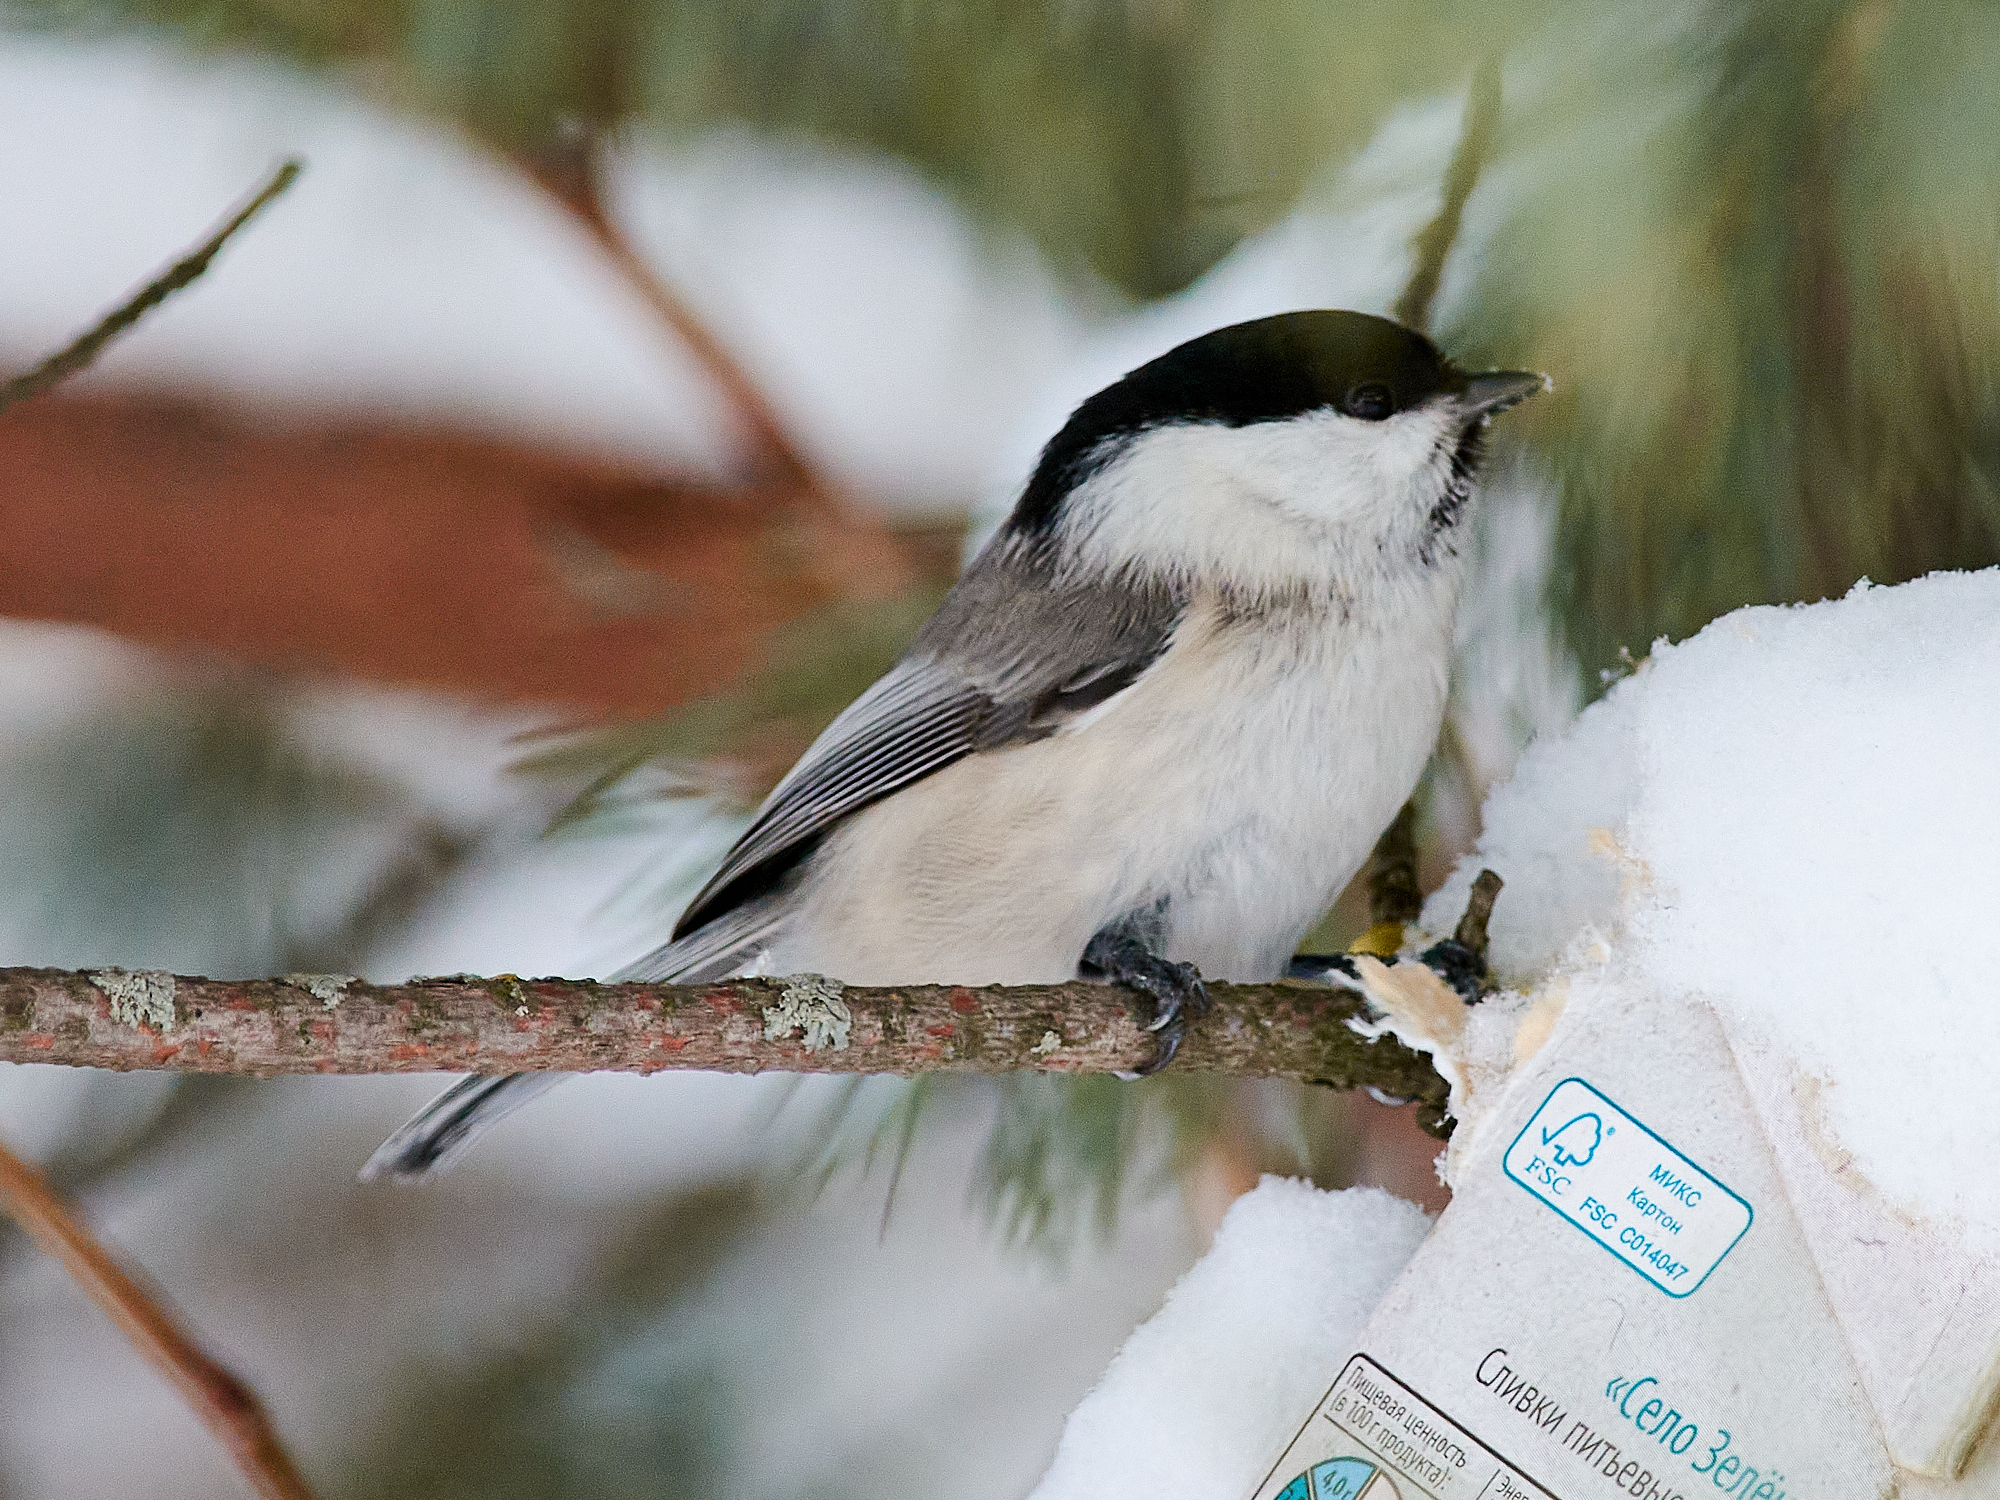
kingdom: Animalia
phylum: Chordata
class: Aves
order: Passeriformes
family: Paridae
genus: Poecile
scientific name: Poecile montanus
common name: Willow tit
